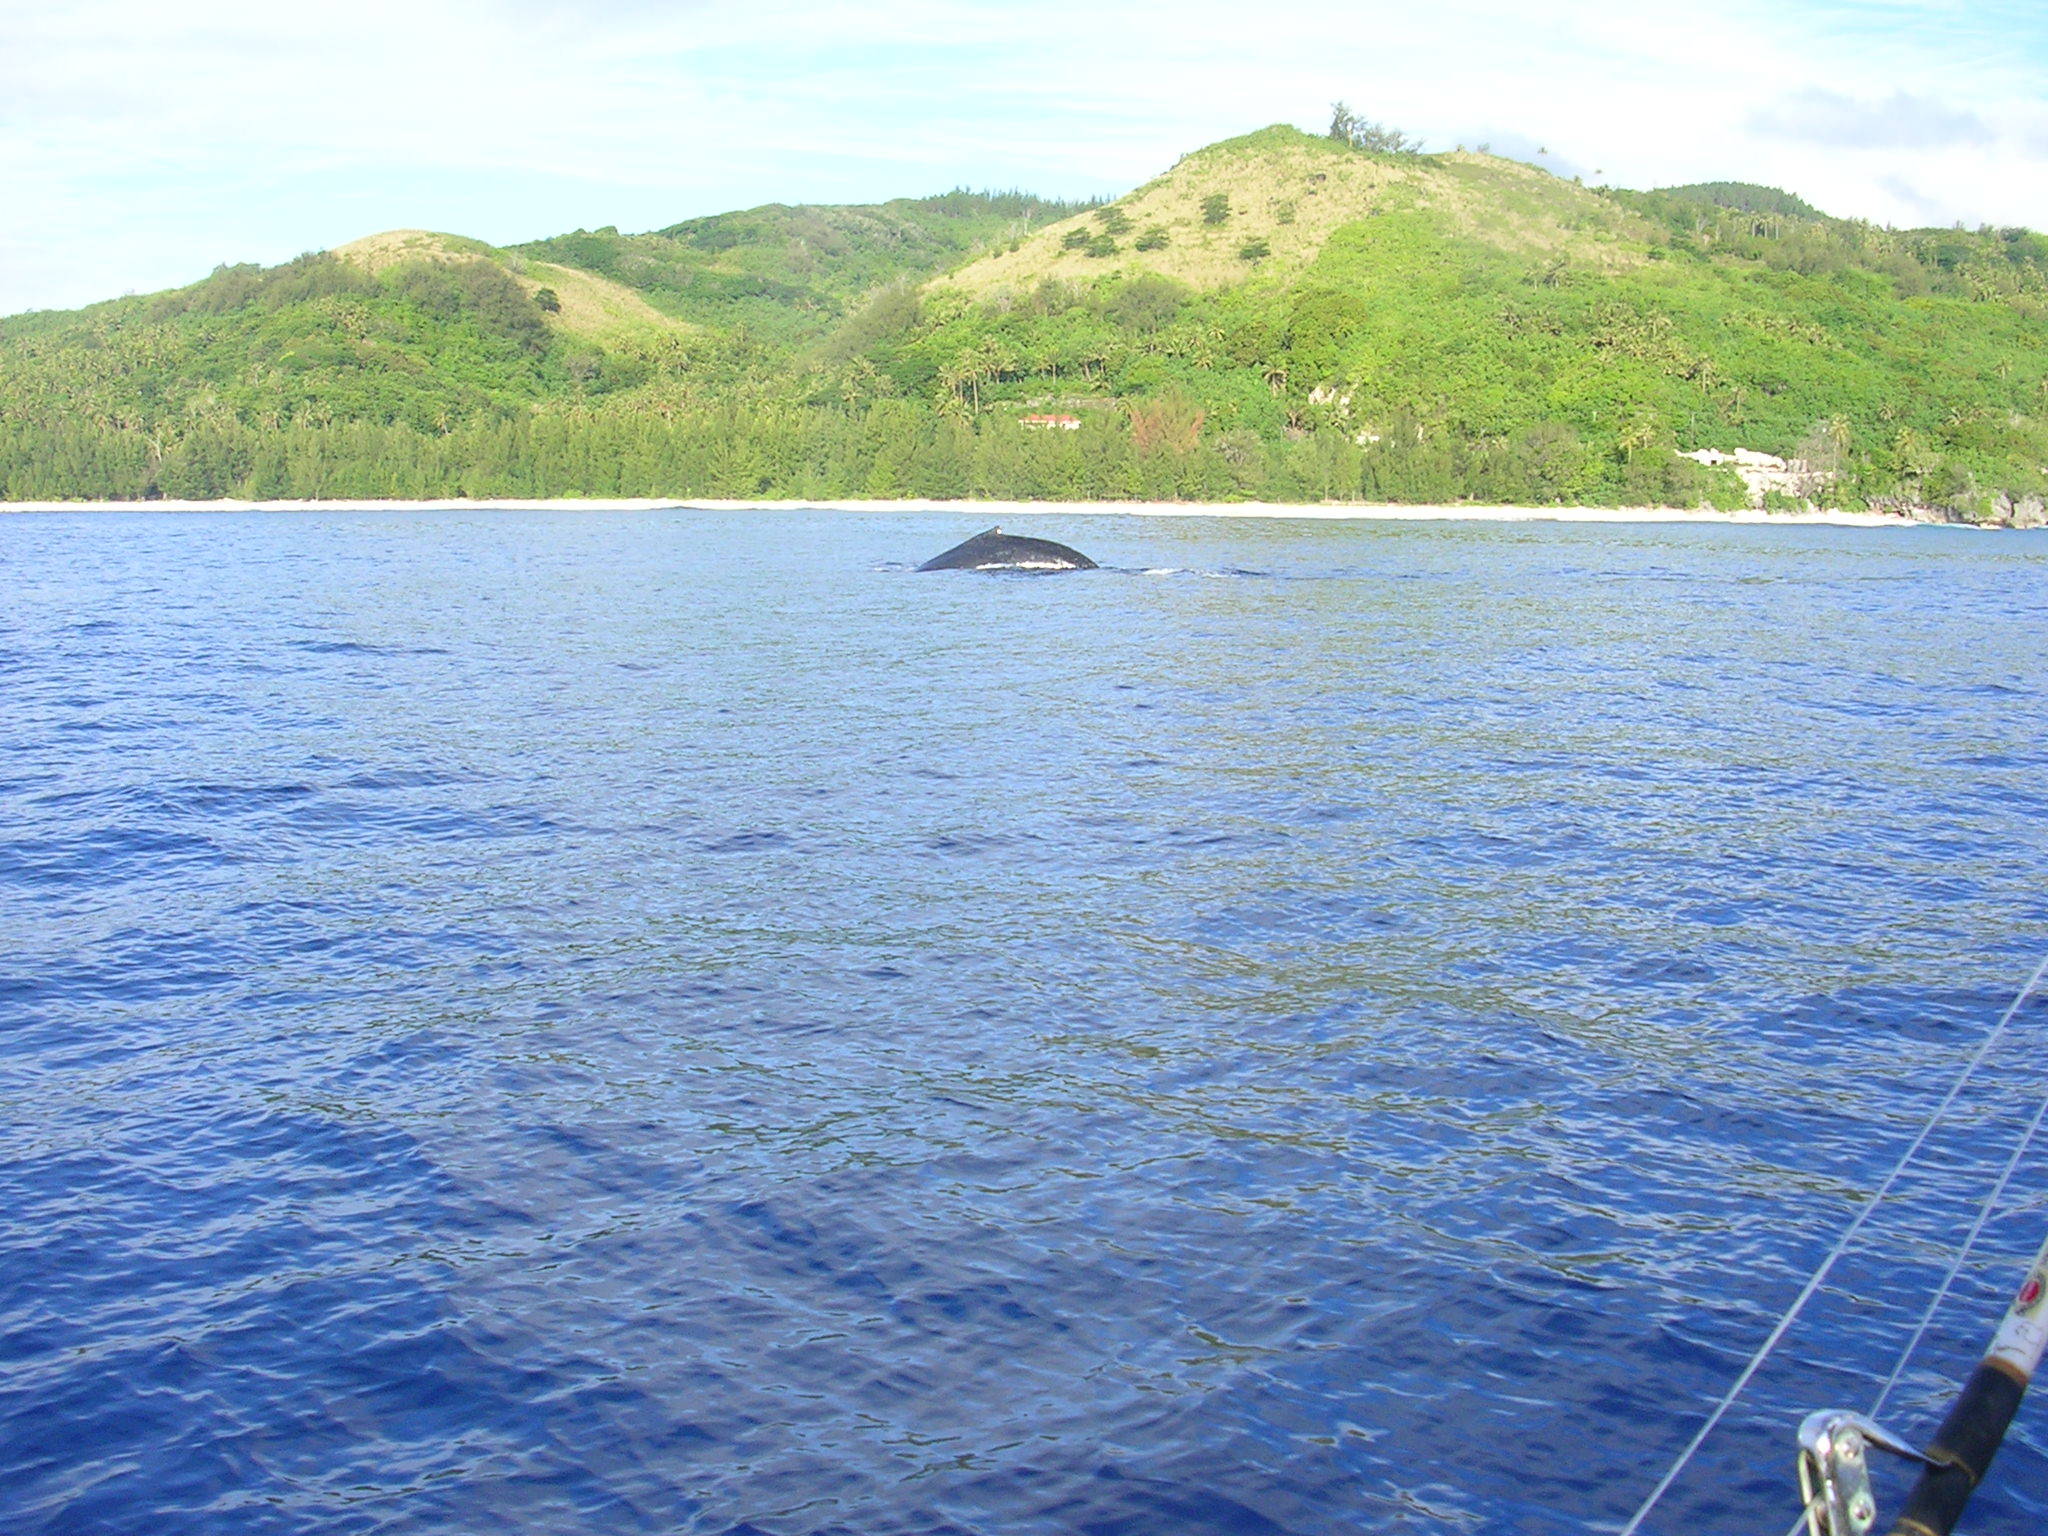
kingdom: Animalia
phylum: Chordata
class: Mammalia
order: Cetacea
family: Balaenopteridae
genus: Megaptera
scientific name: Megaptera novaeangliae
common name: Humpback whale
